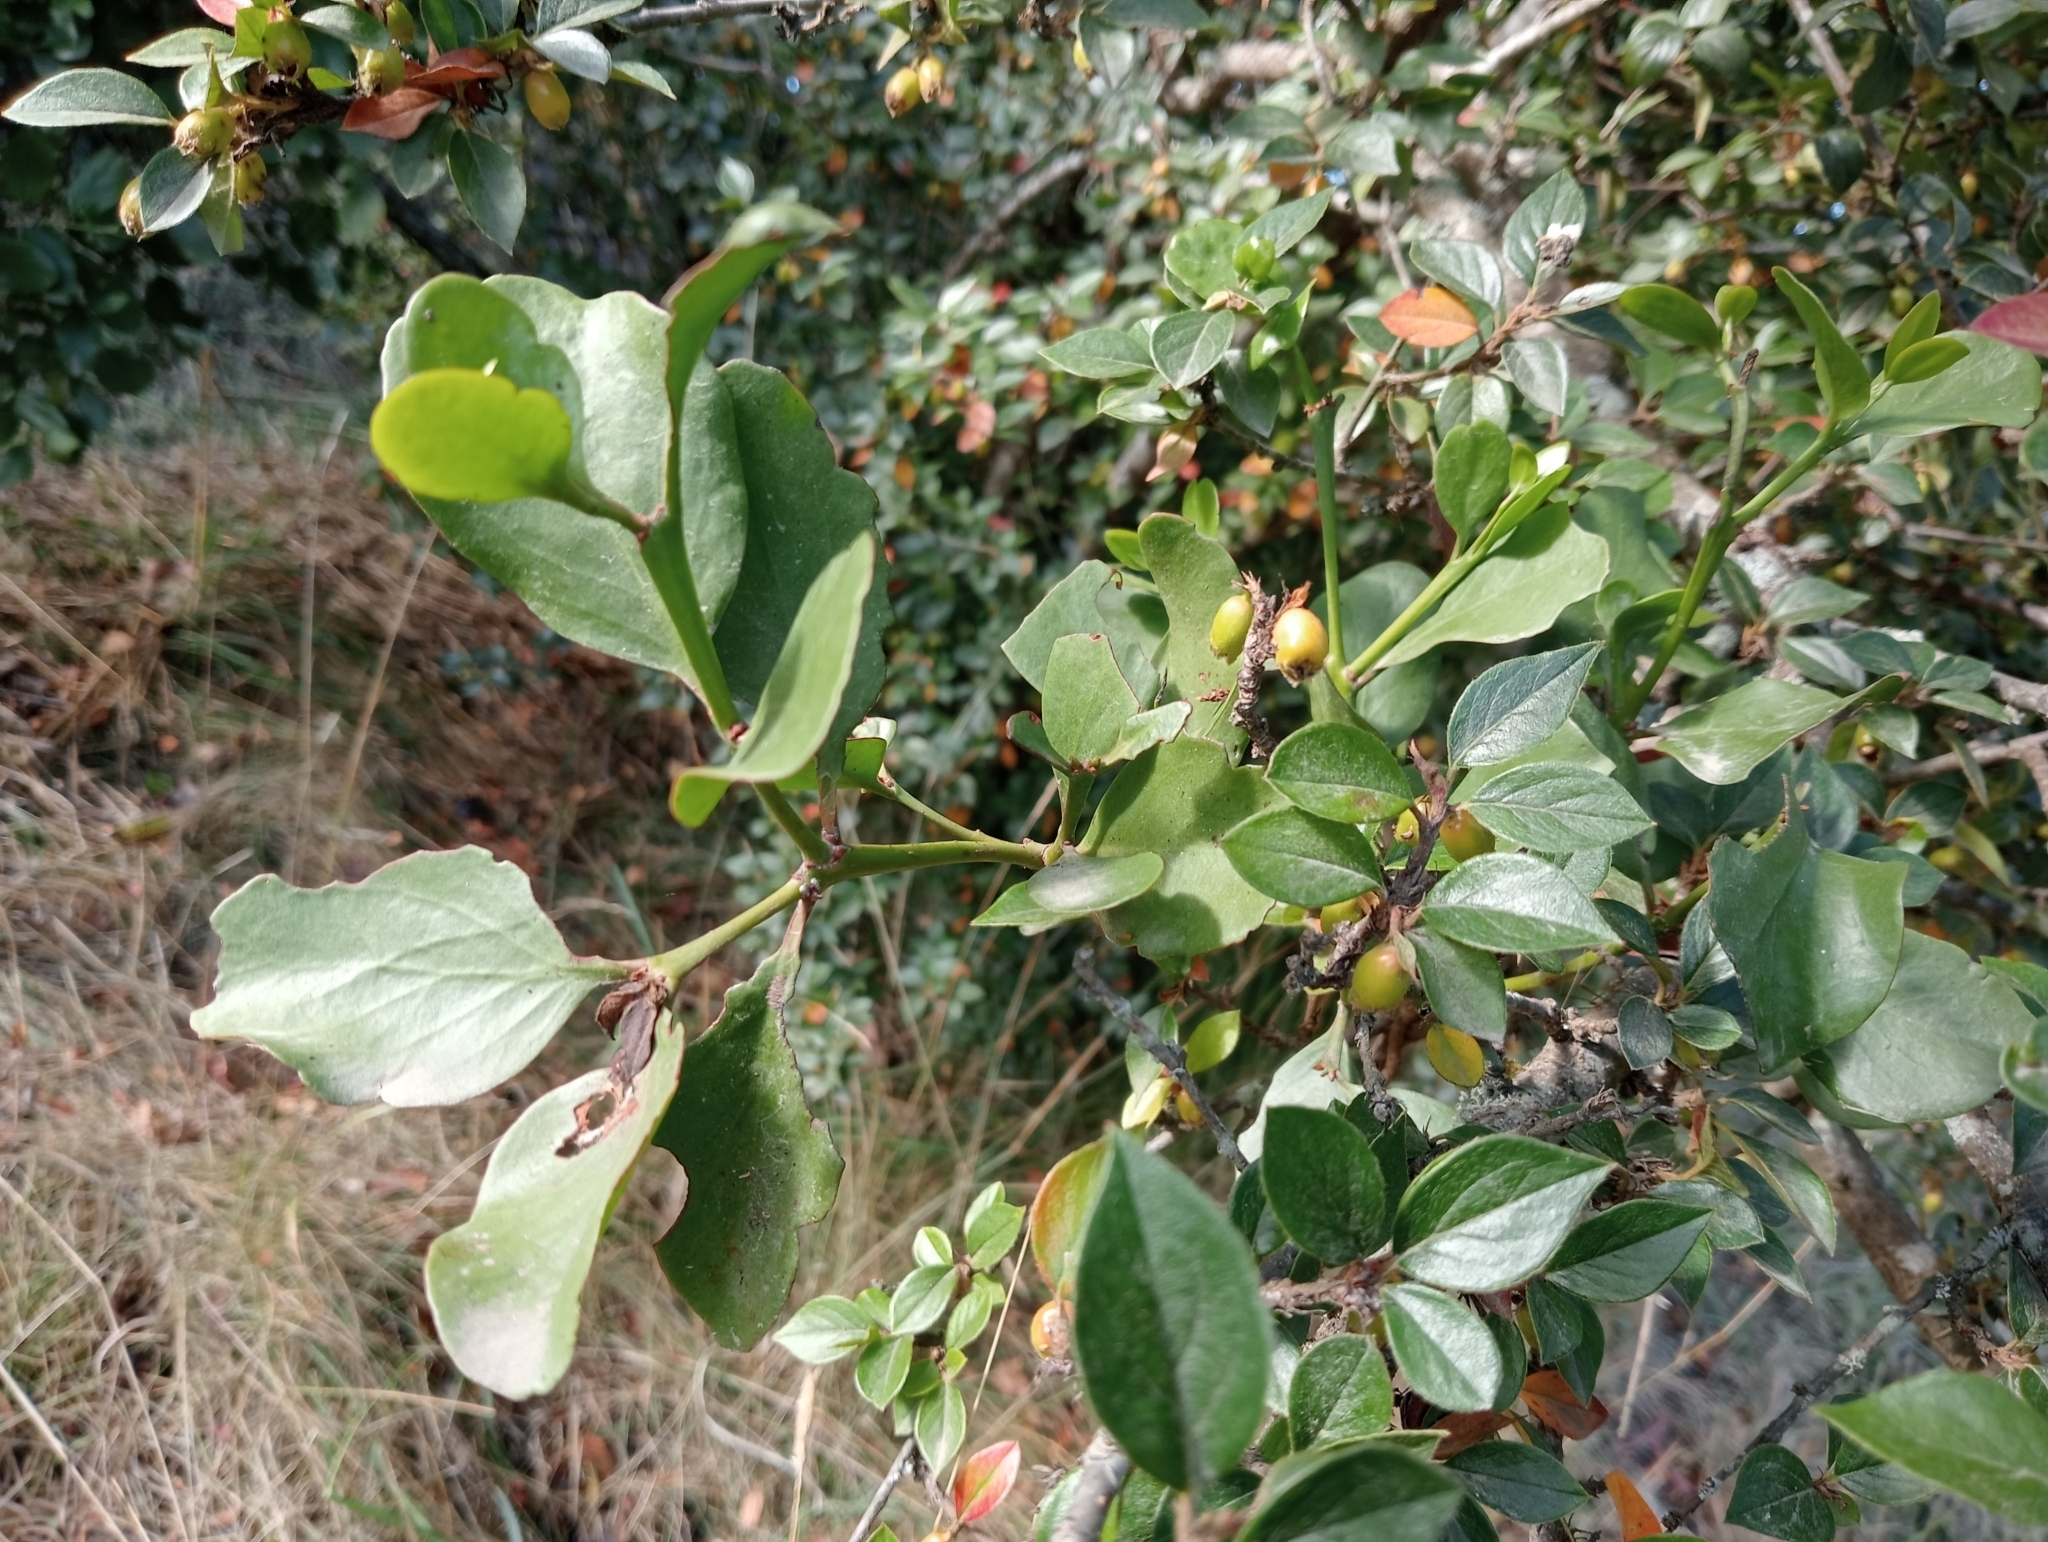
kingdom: Plantae
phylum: Tracheophyta
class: Magnoliopsida
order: Santalales
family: Loranthaceae
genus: Ileostylus
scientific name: Ileostylus micranthus
